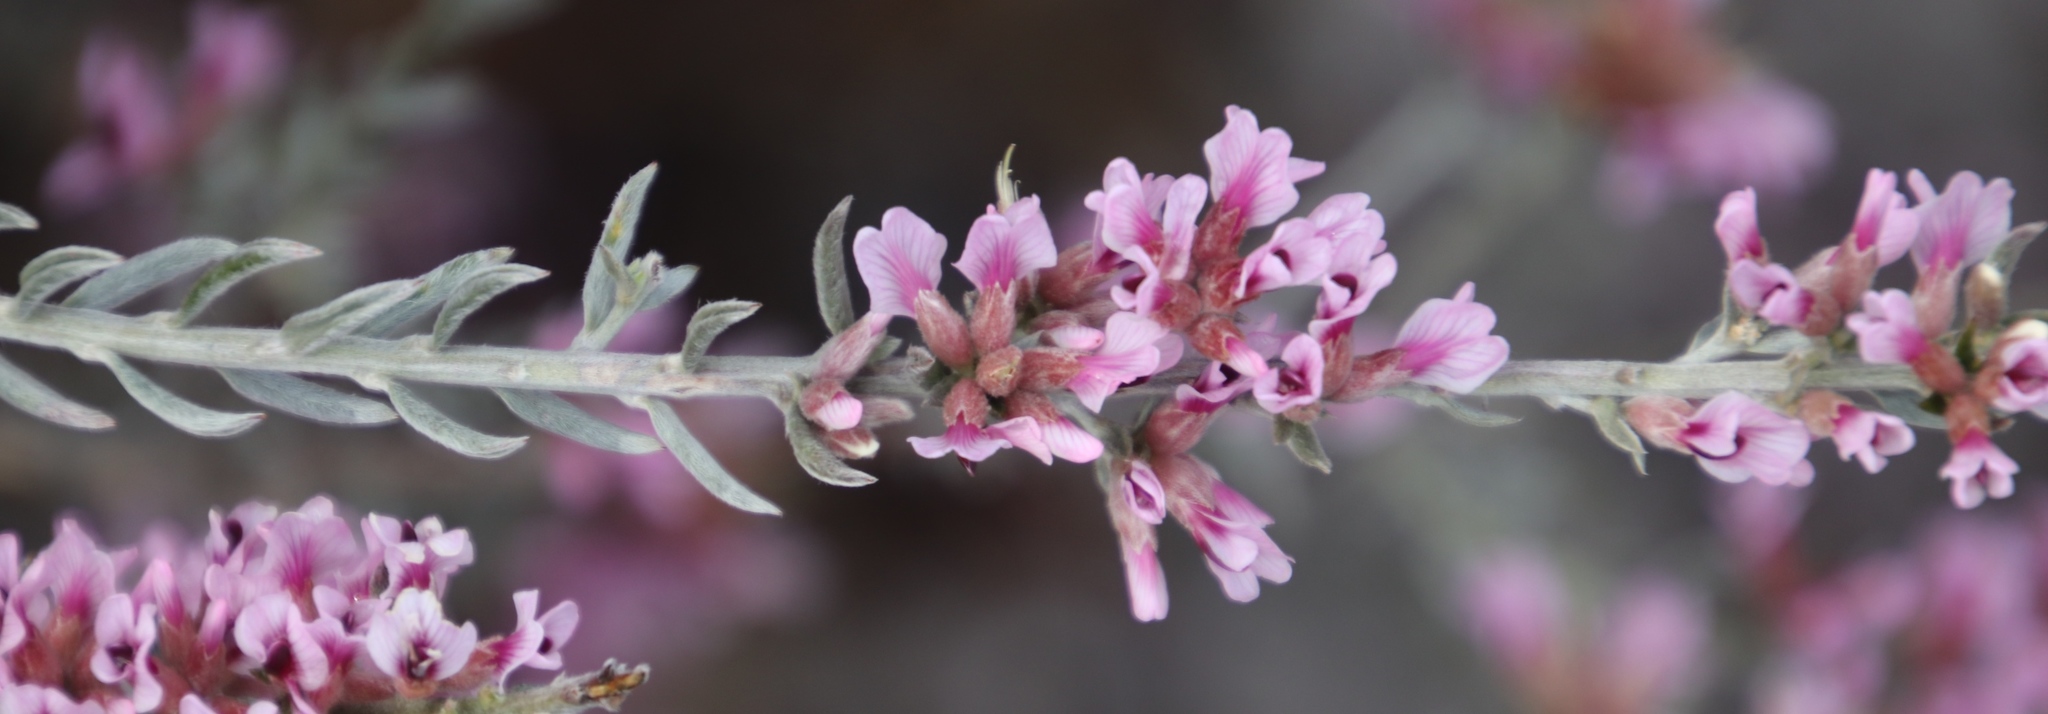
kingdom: Plantae
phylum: Tracheophyta
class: Magnoliopsida
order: Fabales
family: Fabaceae
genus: Amphithalea
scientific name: Amphithalea ericifolia
